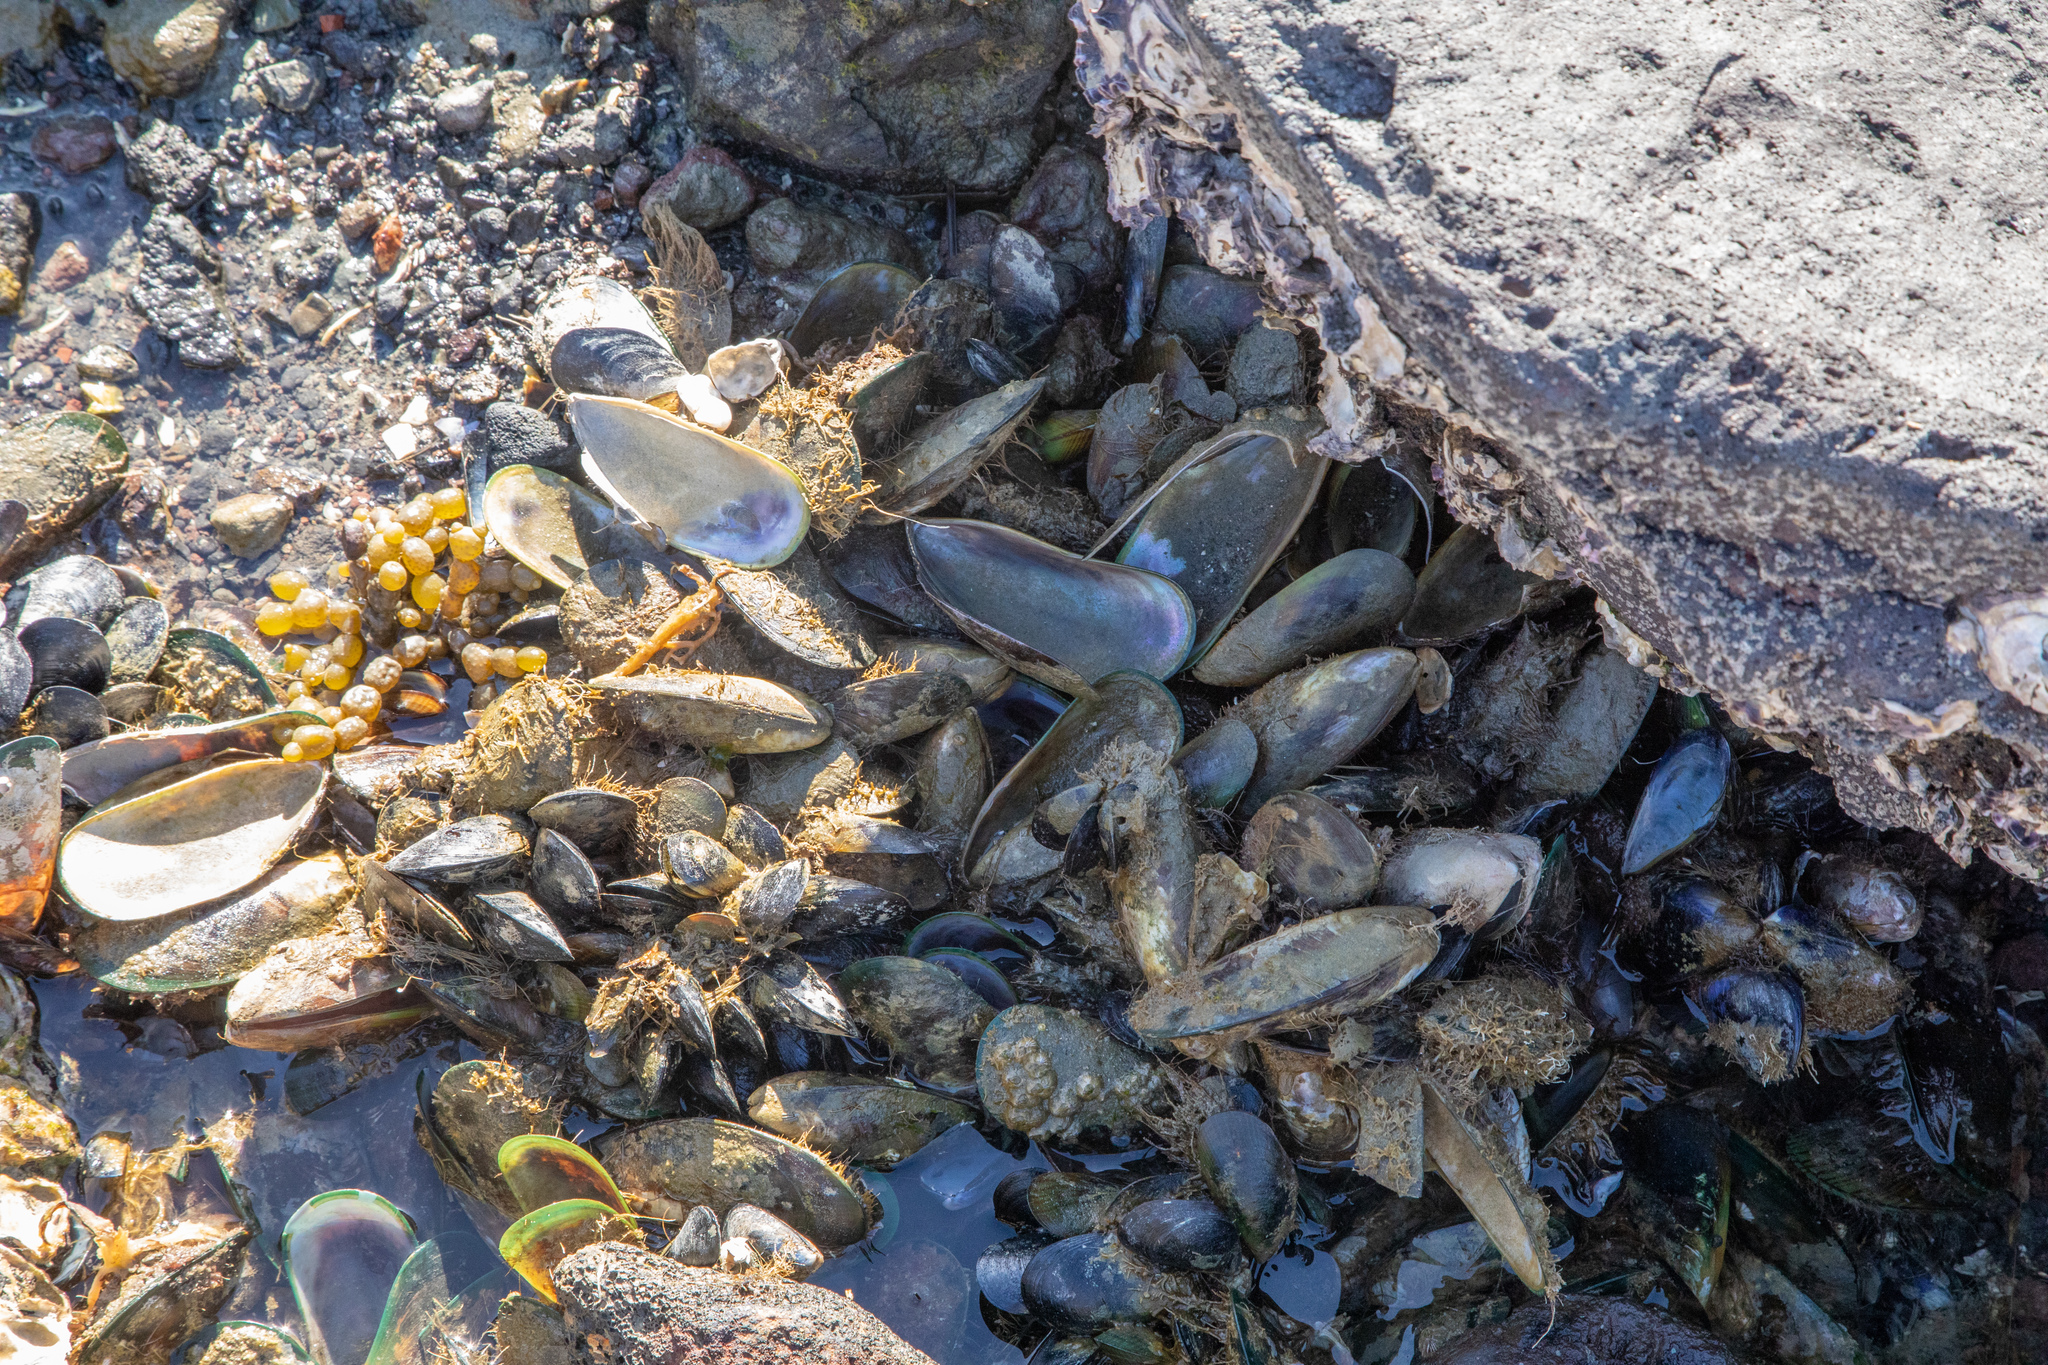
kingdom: Animalia
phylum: Mollusca
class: Bivalvia
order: Mytilida
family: Mytilidae
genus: Perna
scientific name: Perna canaliculus
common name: New zealand greenshelltm
